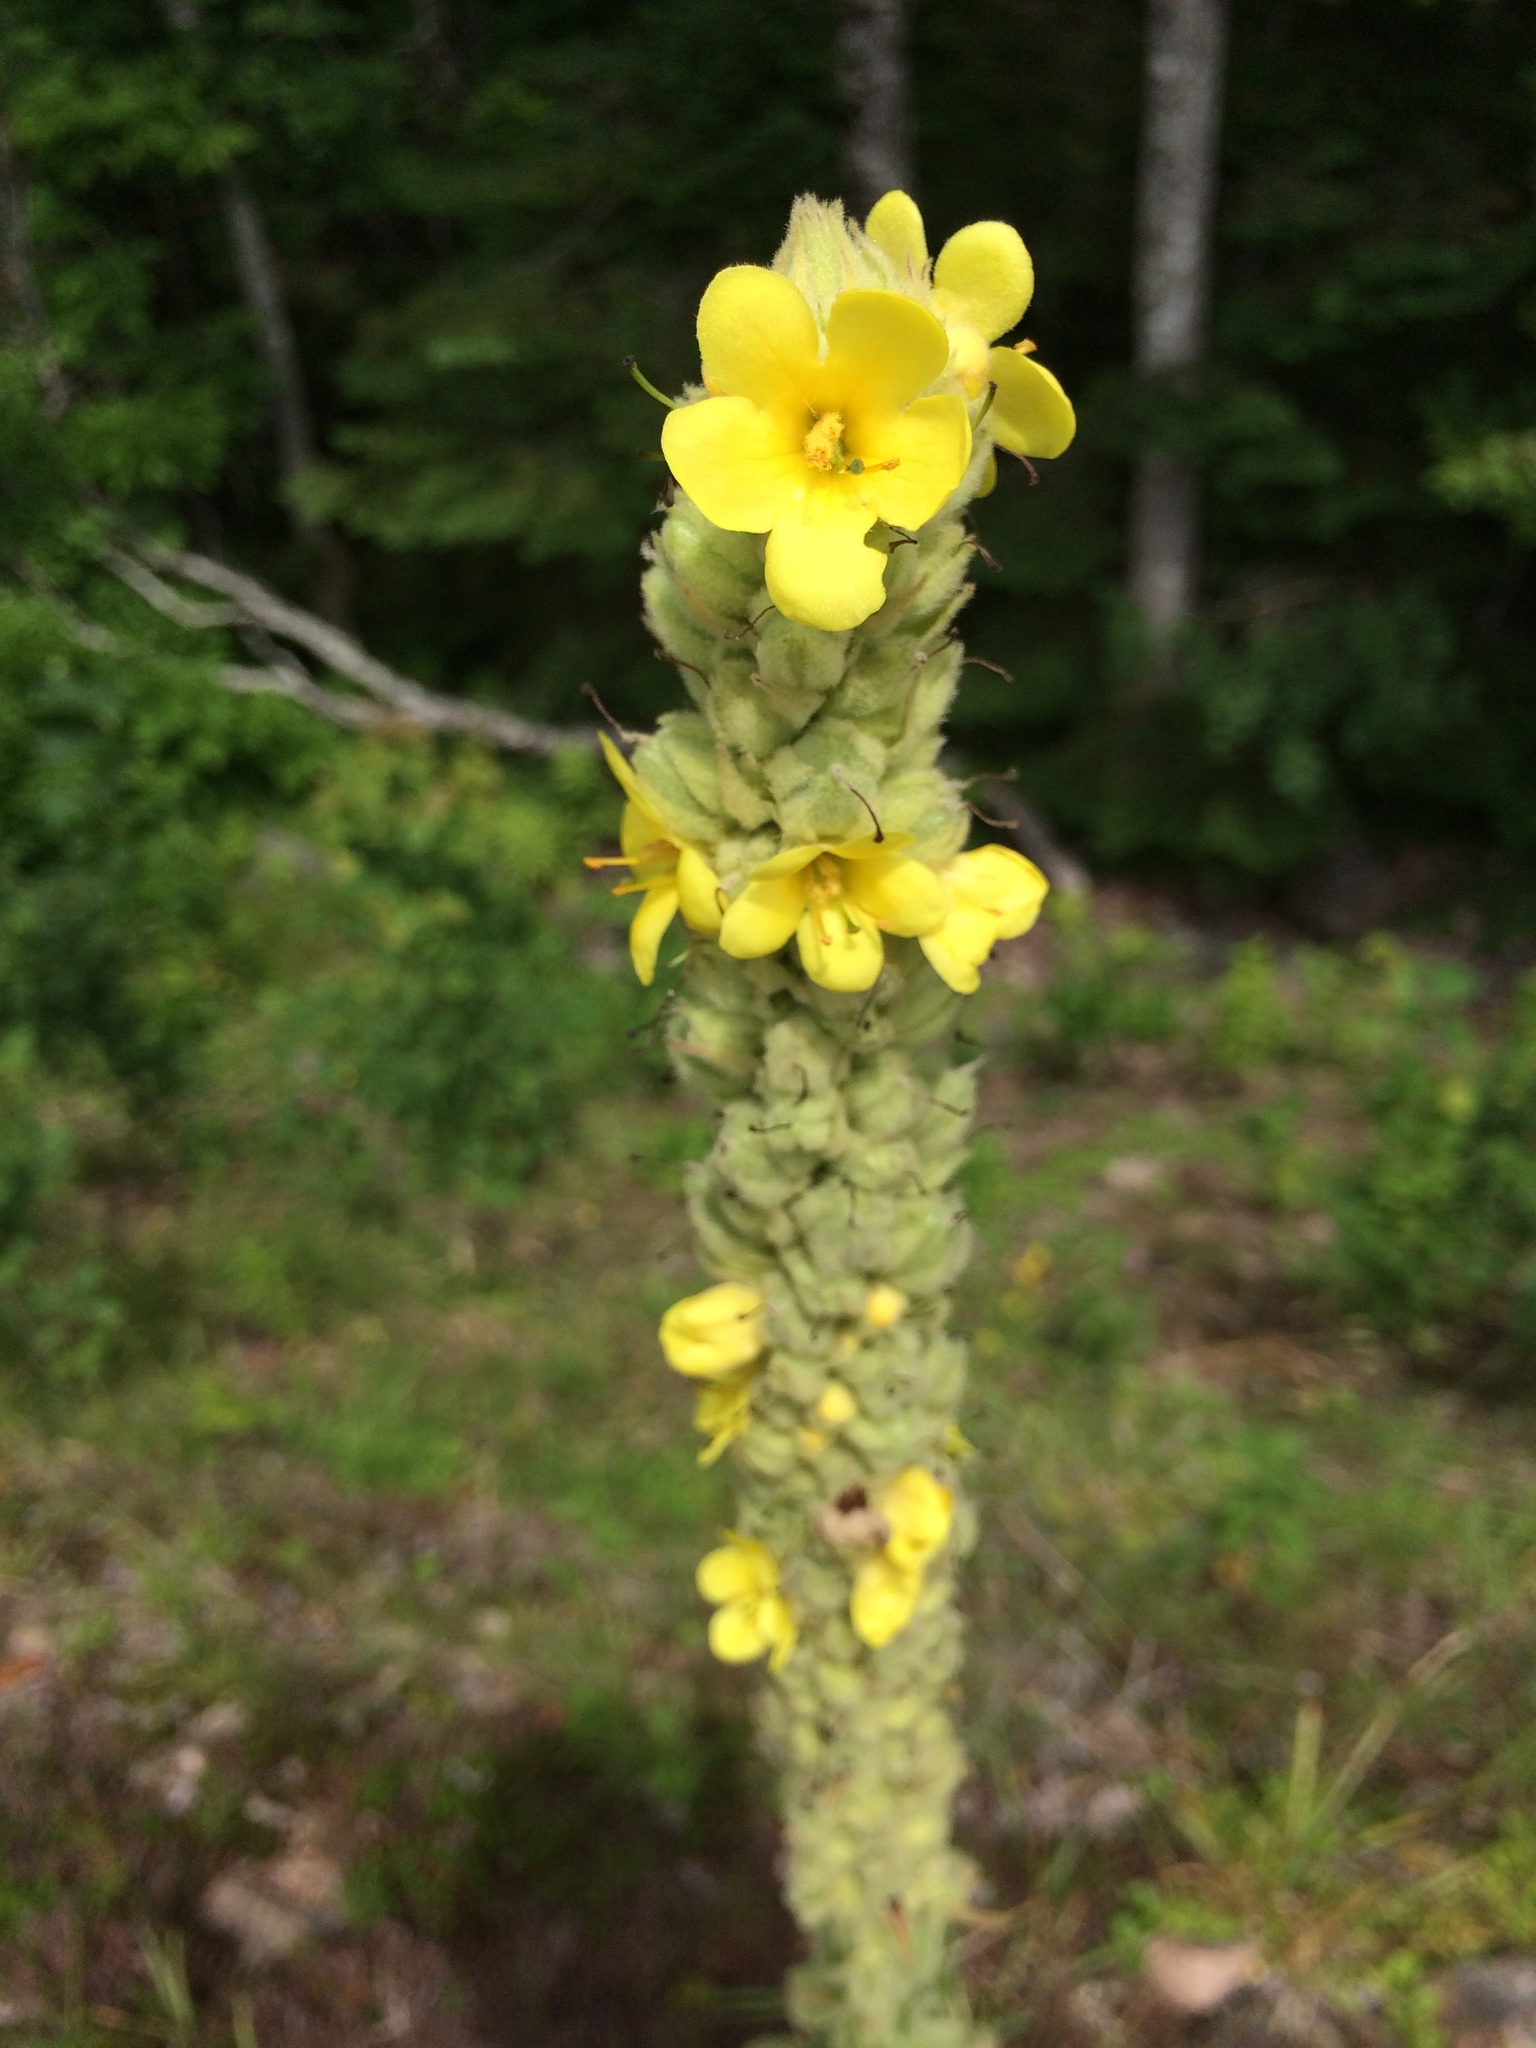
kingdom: Plantae
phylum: Tracheophyta
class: Magnoliopsida
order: Lamiales
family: Scrophulariaceae
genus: Verbascum
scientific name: Verbascum thapsus
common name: Common mullein
